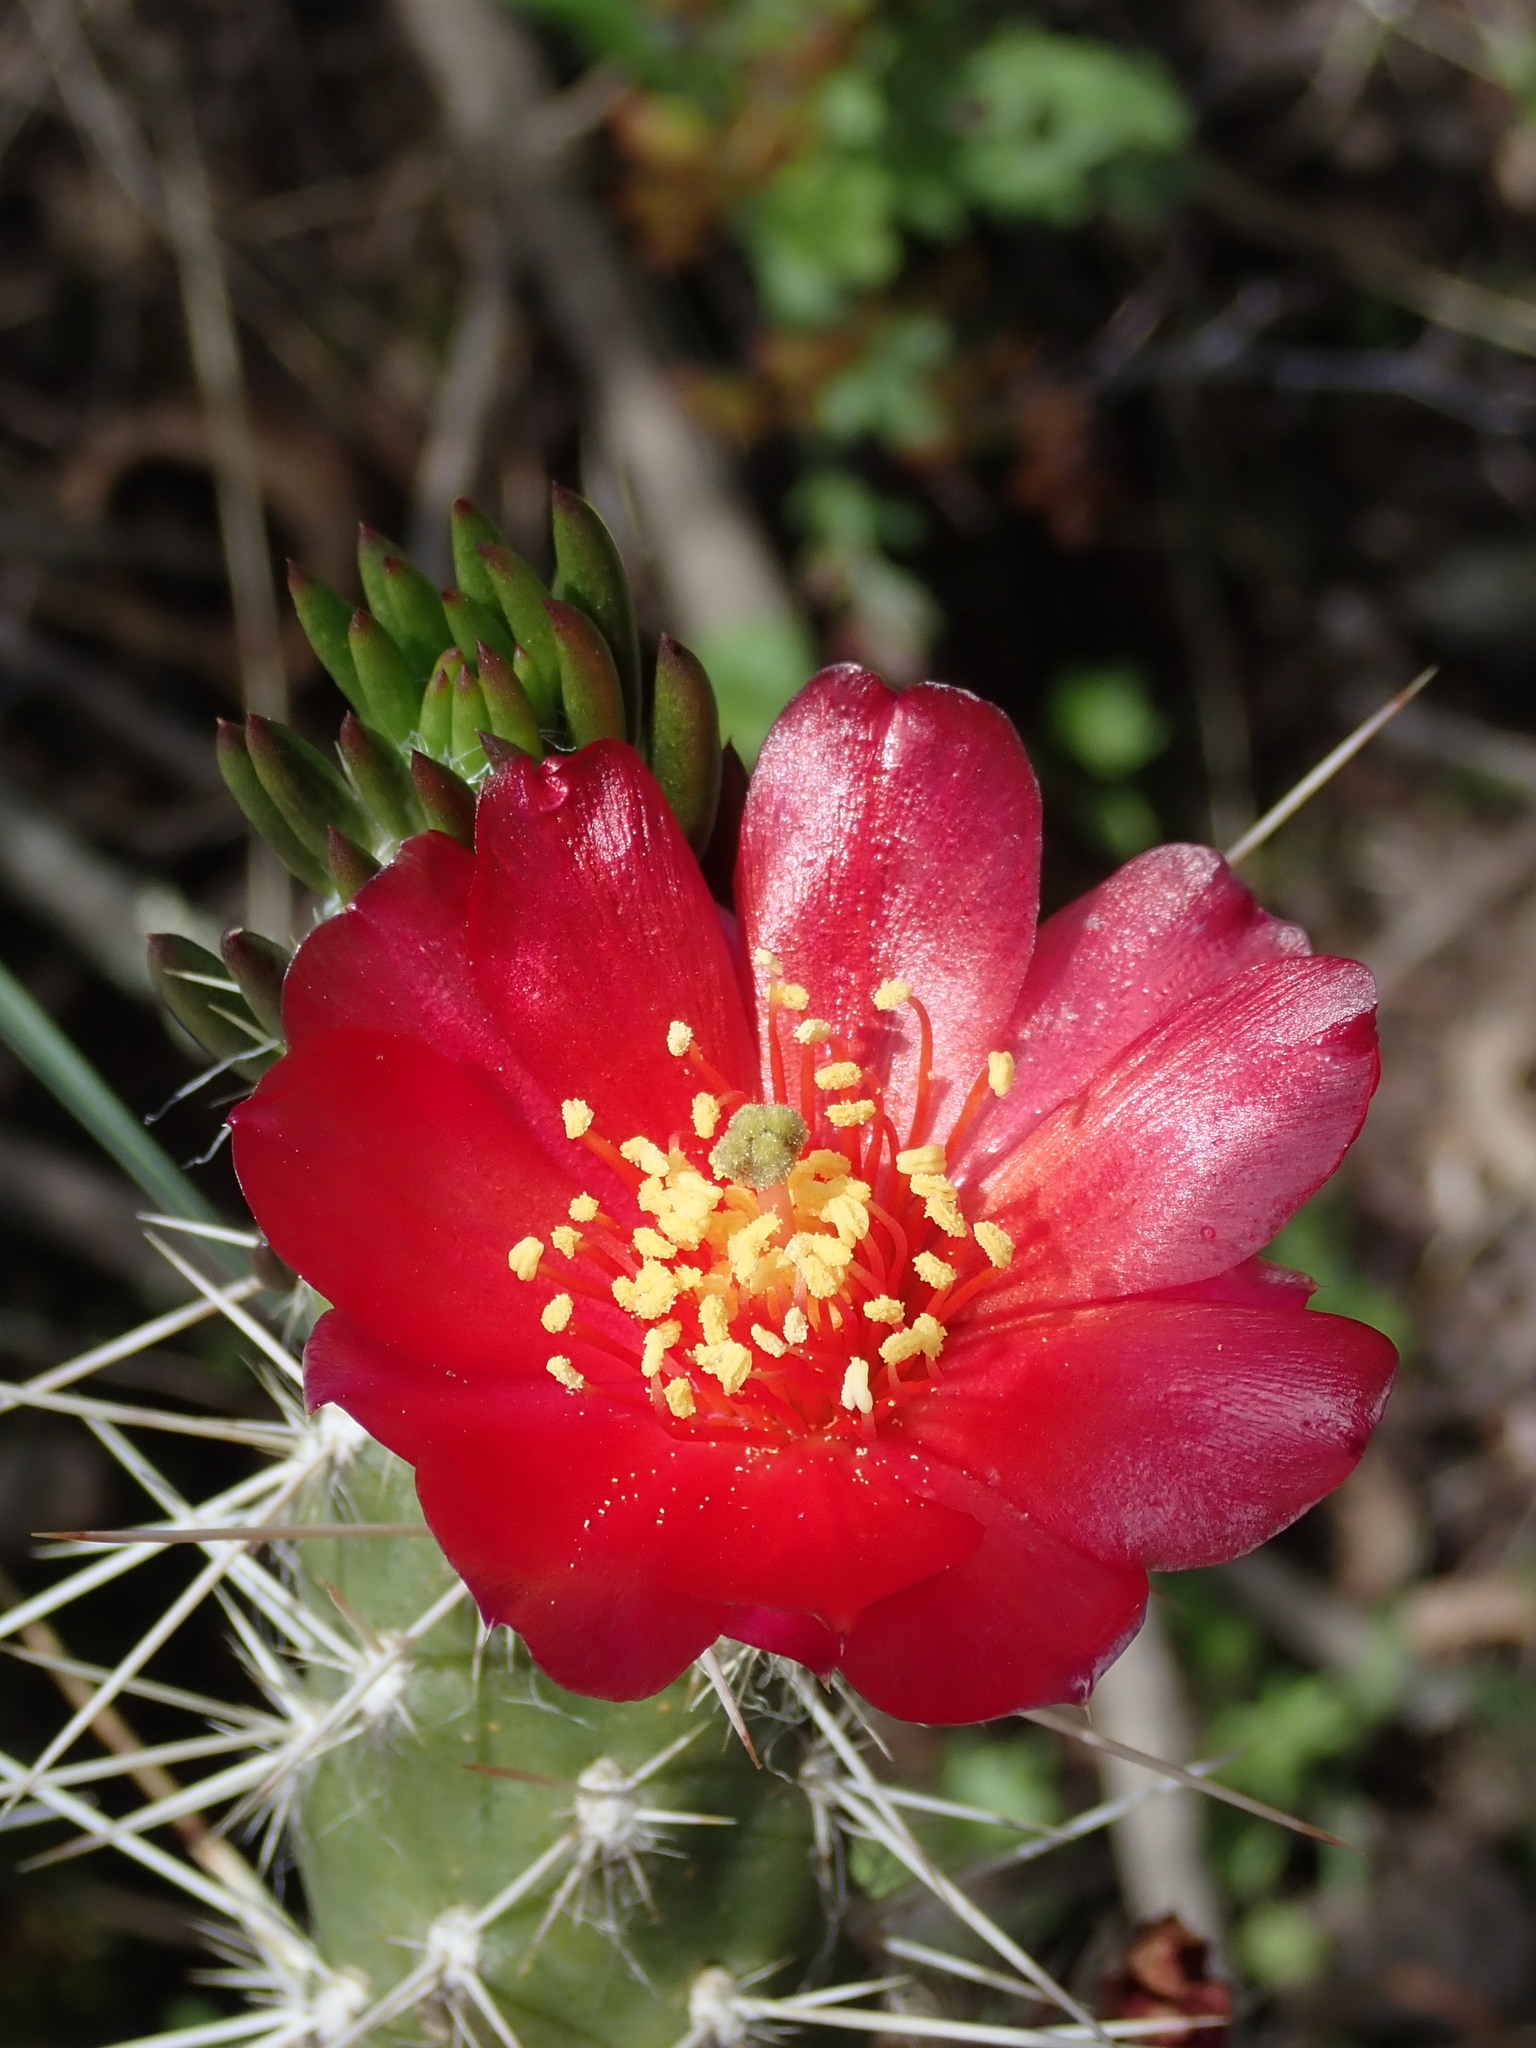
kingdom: Plantae
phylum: Tracheophyta
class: Magnoliopsida
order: Caryophyllales
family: Cactaceae
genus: Austrocylindropuntia
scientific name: Austrocylindropuntia shaferi
